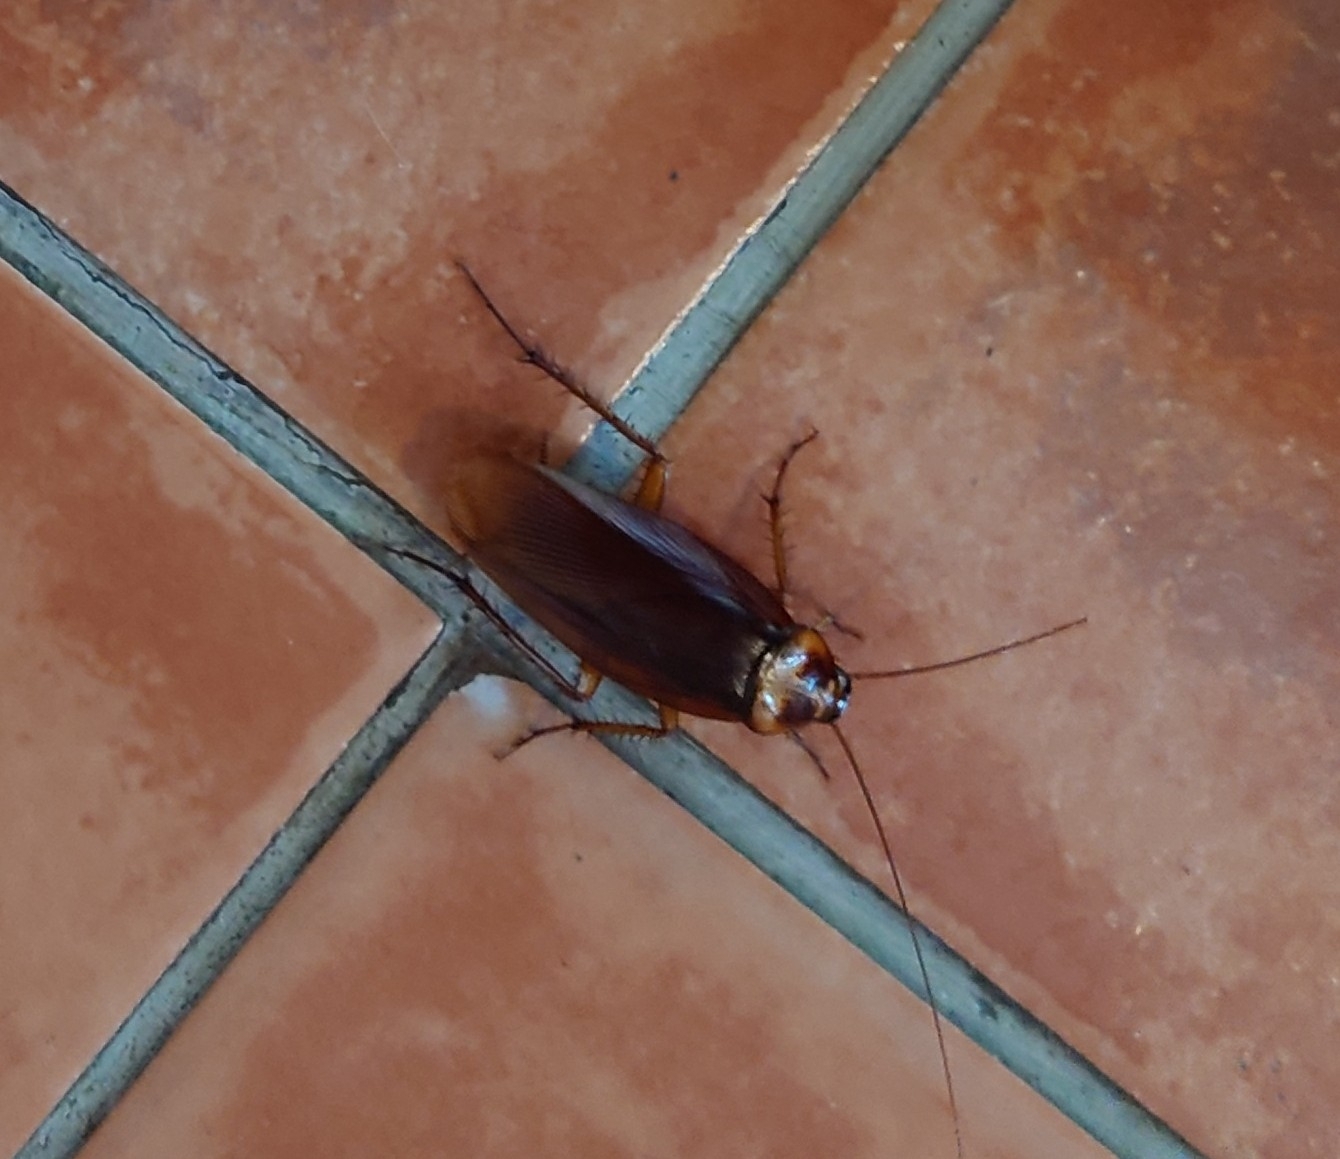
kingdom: Animalia
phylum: Arthropoda
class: Insecta
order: Blattodea
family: Blattidae
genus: Periplaneta
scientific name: Periplaneta americana
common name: American cockroach
